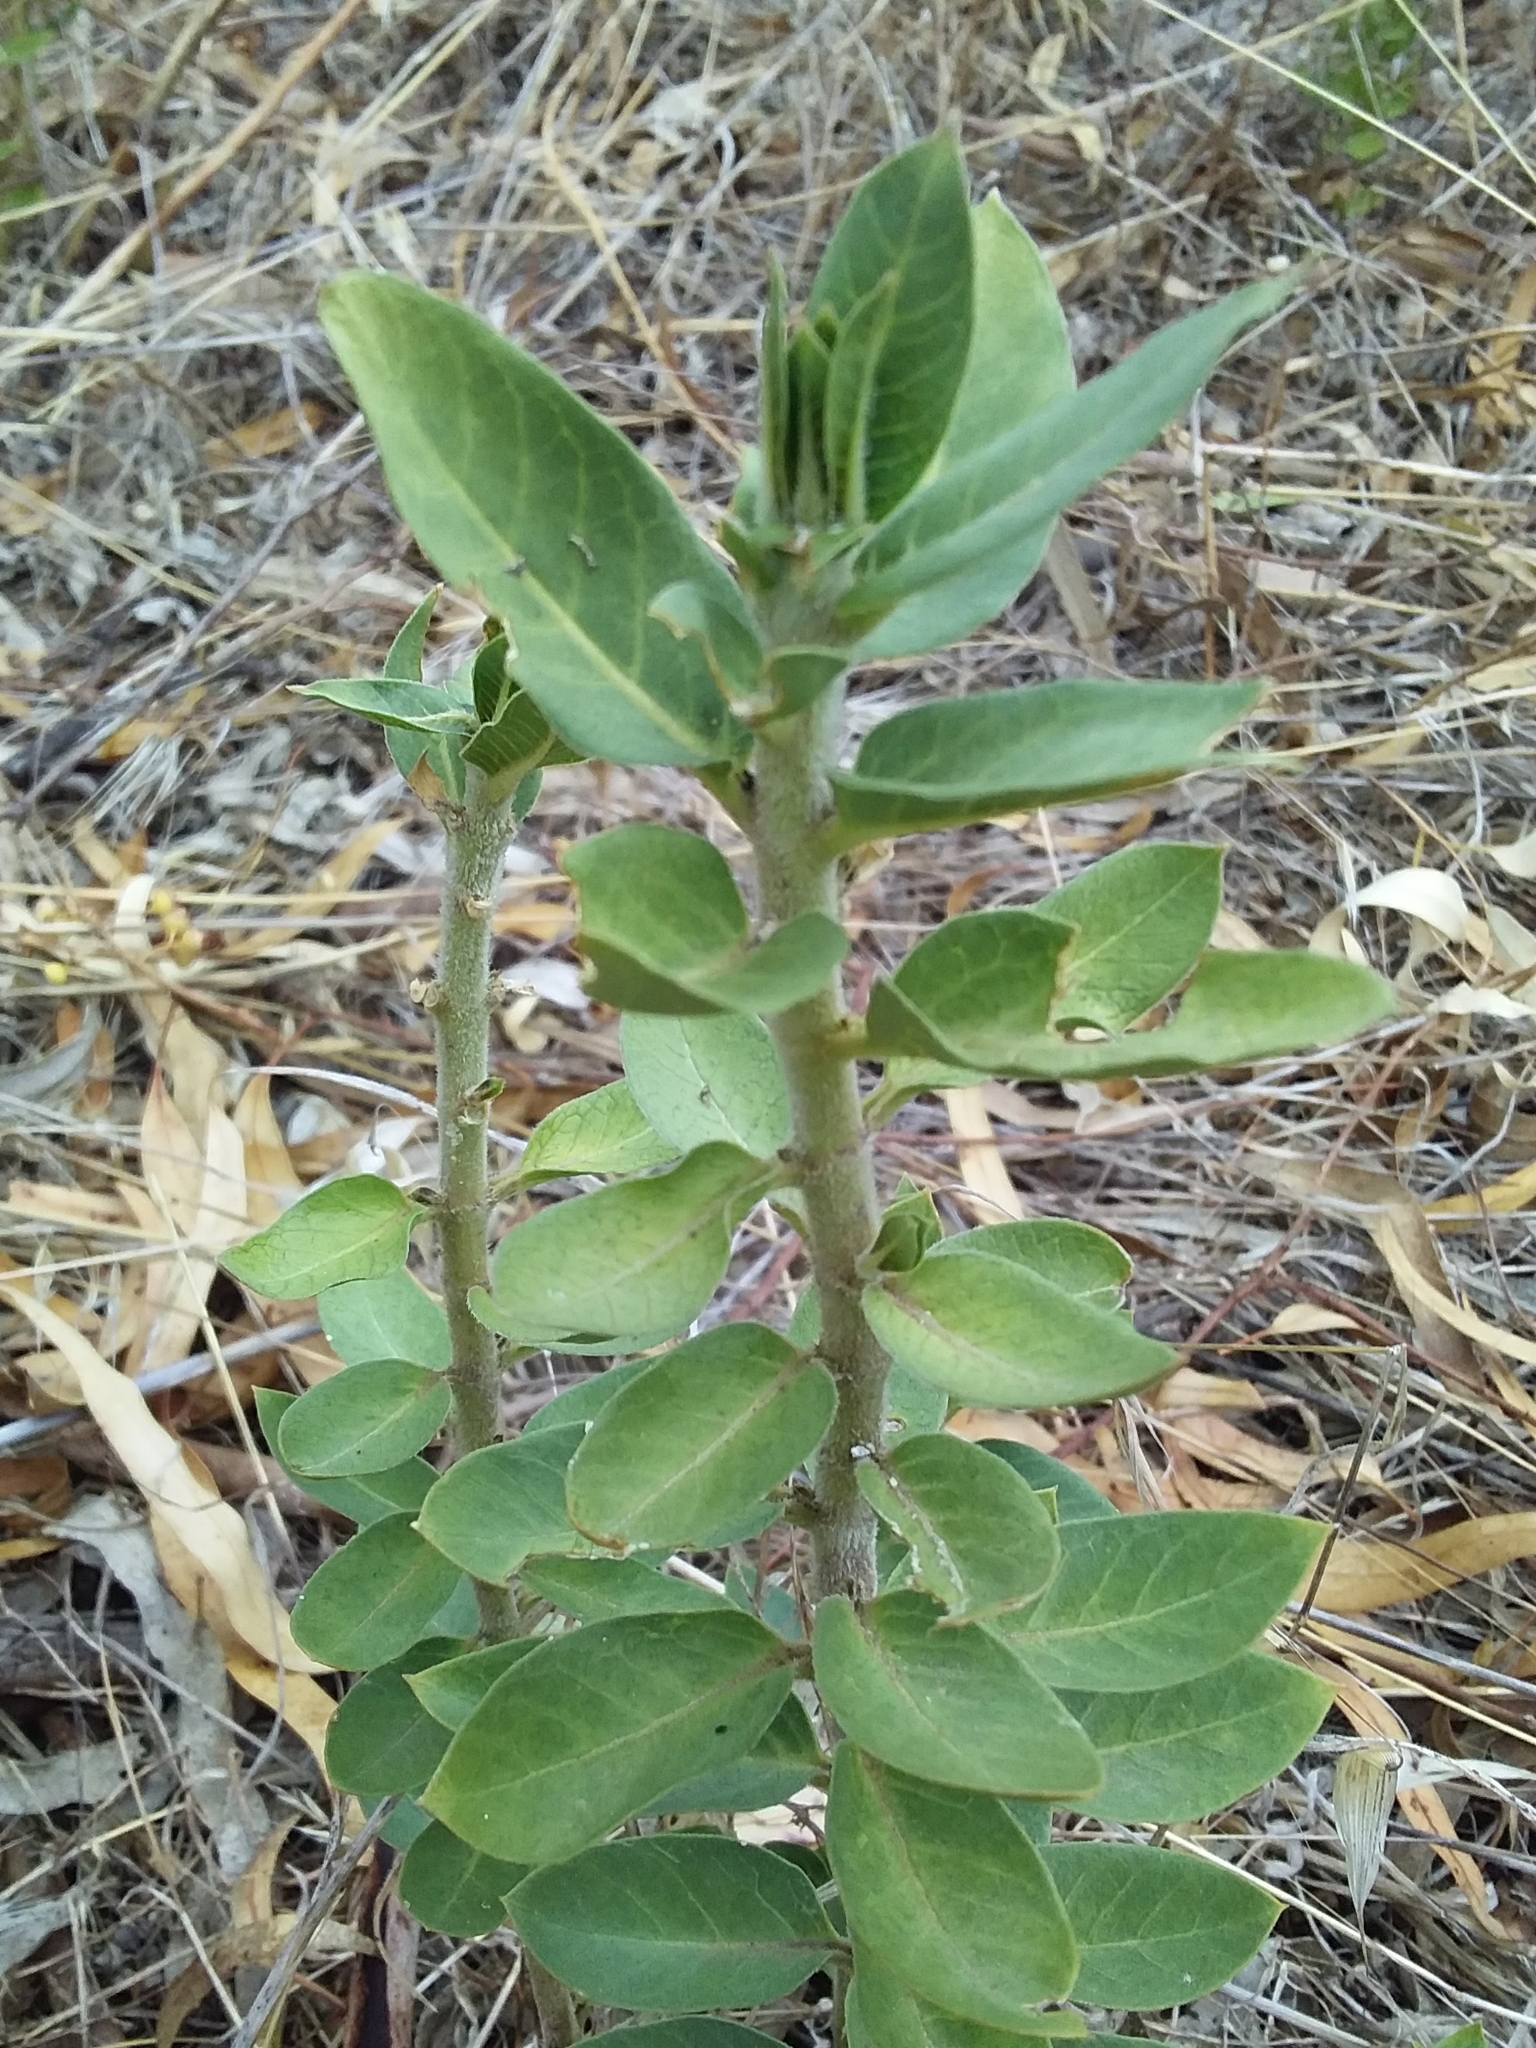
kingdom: Plantae
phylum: Tracheophyta
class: Magnoliopsida
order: Gentianales
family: Apocynaceae
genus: Gomphocarpus
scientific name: Gomphocarpus cancellatus
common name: Wild cotton
